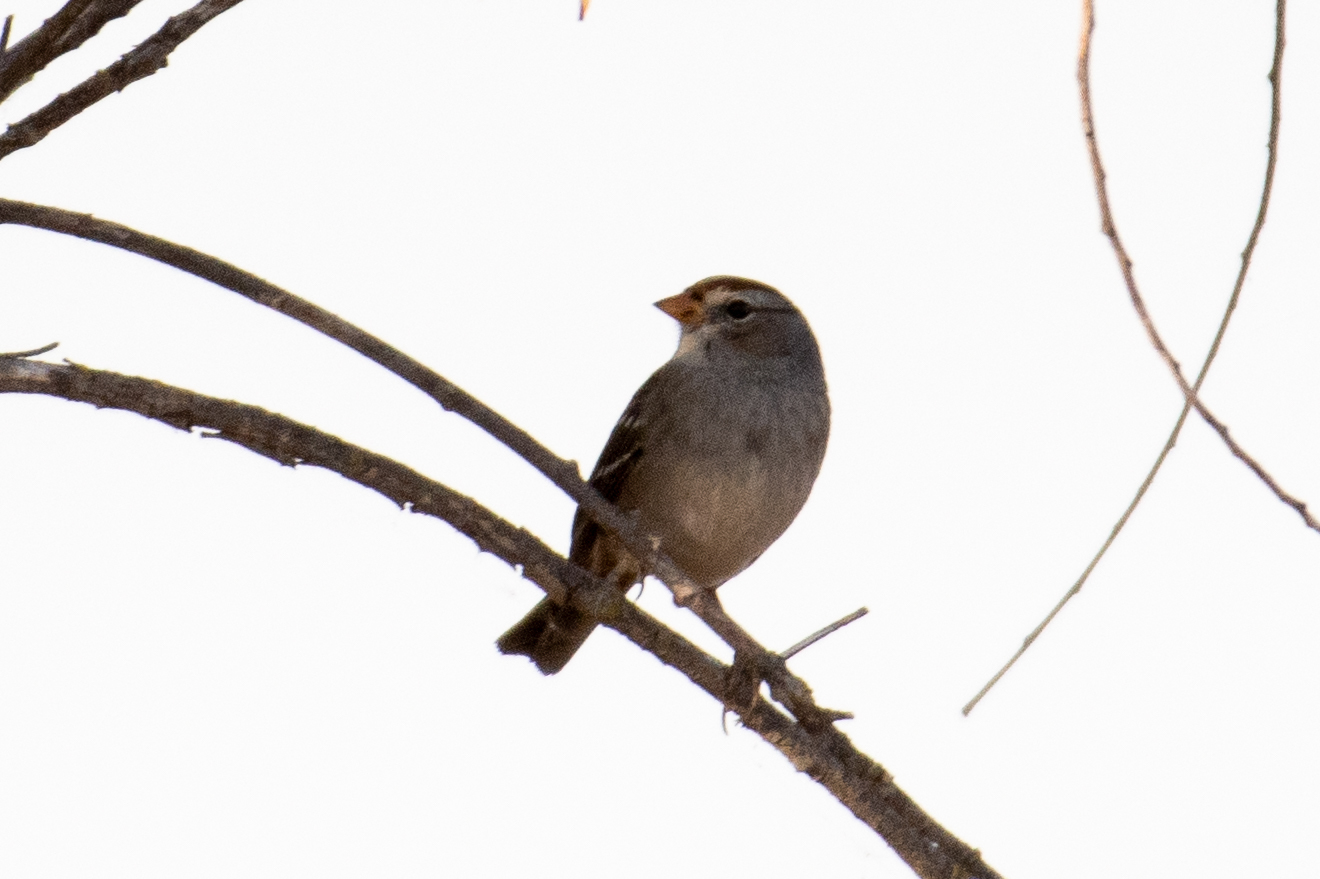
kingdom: Animalia
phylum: Chordata
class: Aves
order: Passeriformes
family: Passerellidae
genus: Zonotrichia
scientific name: Zonotrichia leucophrys
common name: White-crowned sparrow
